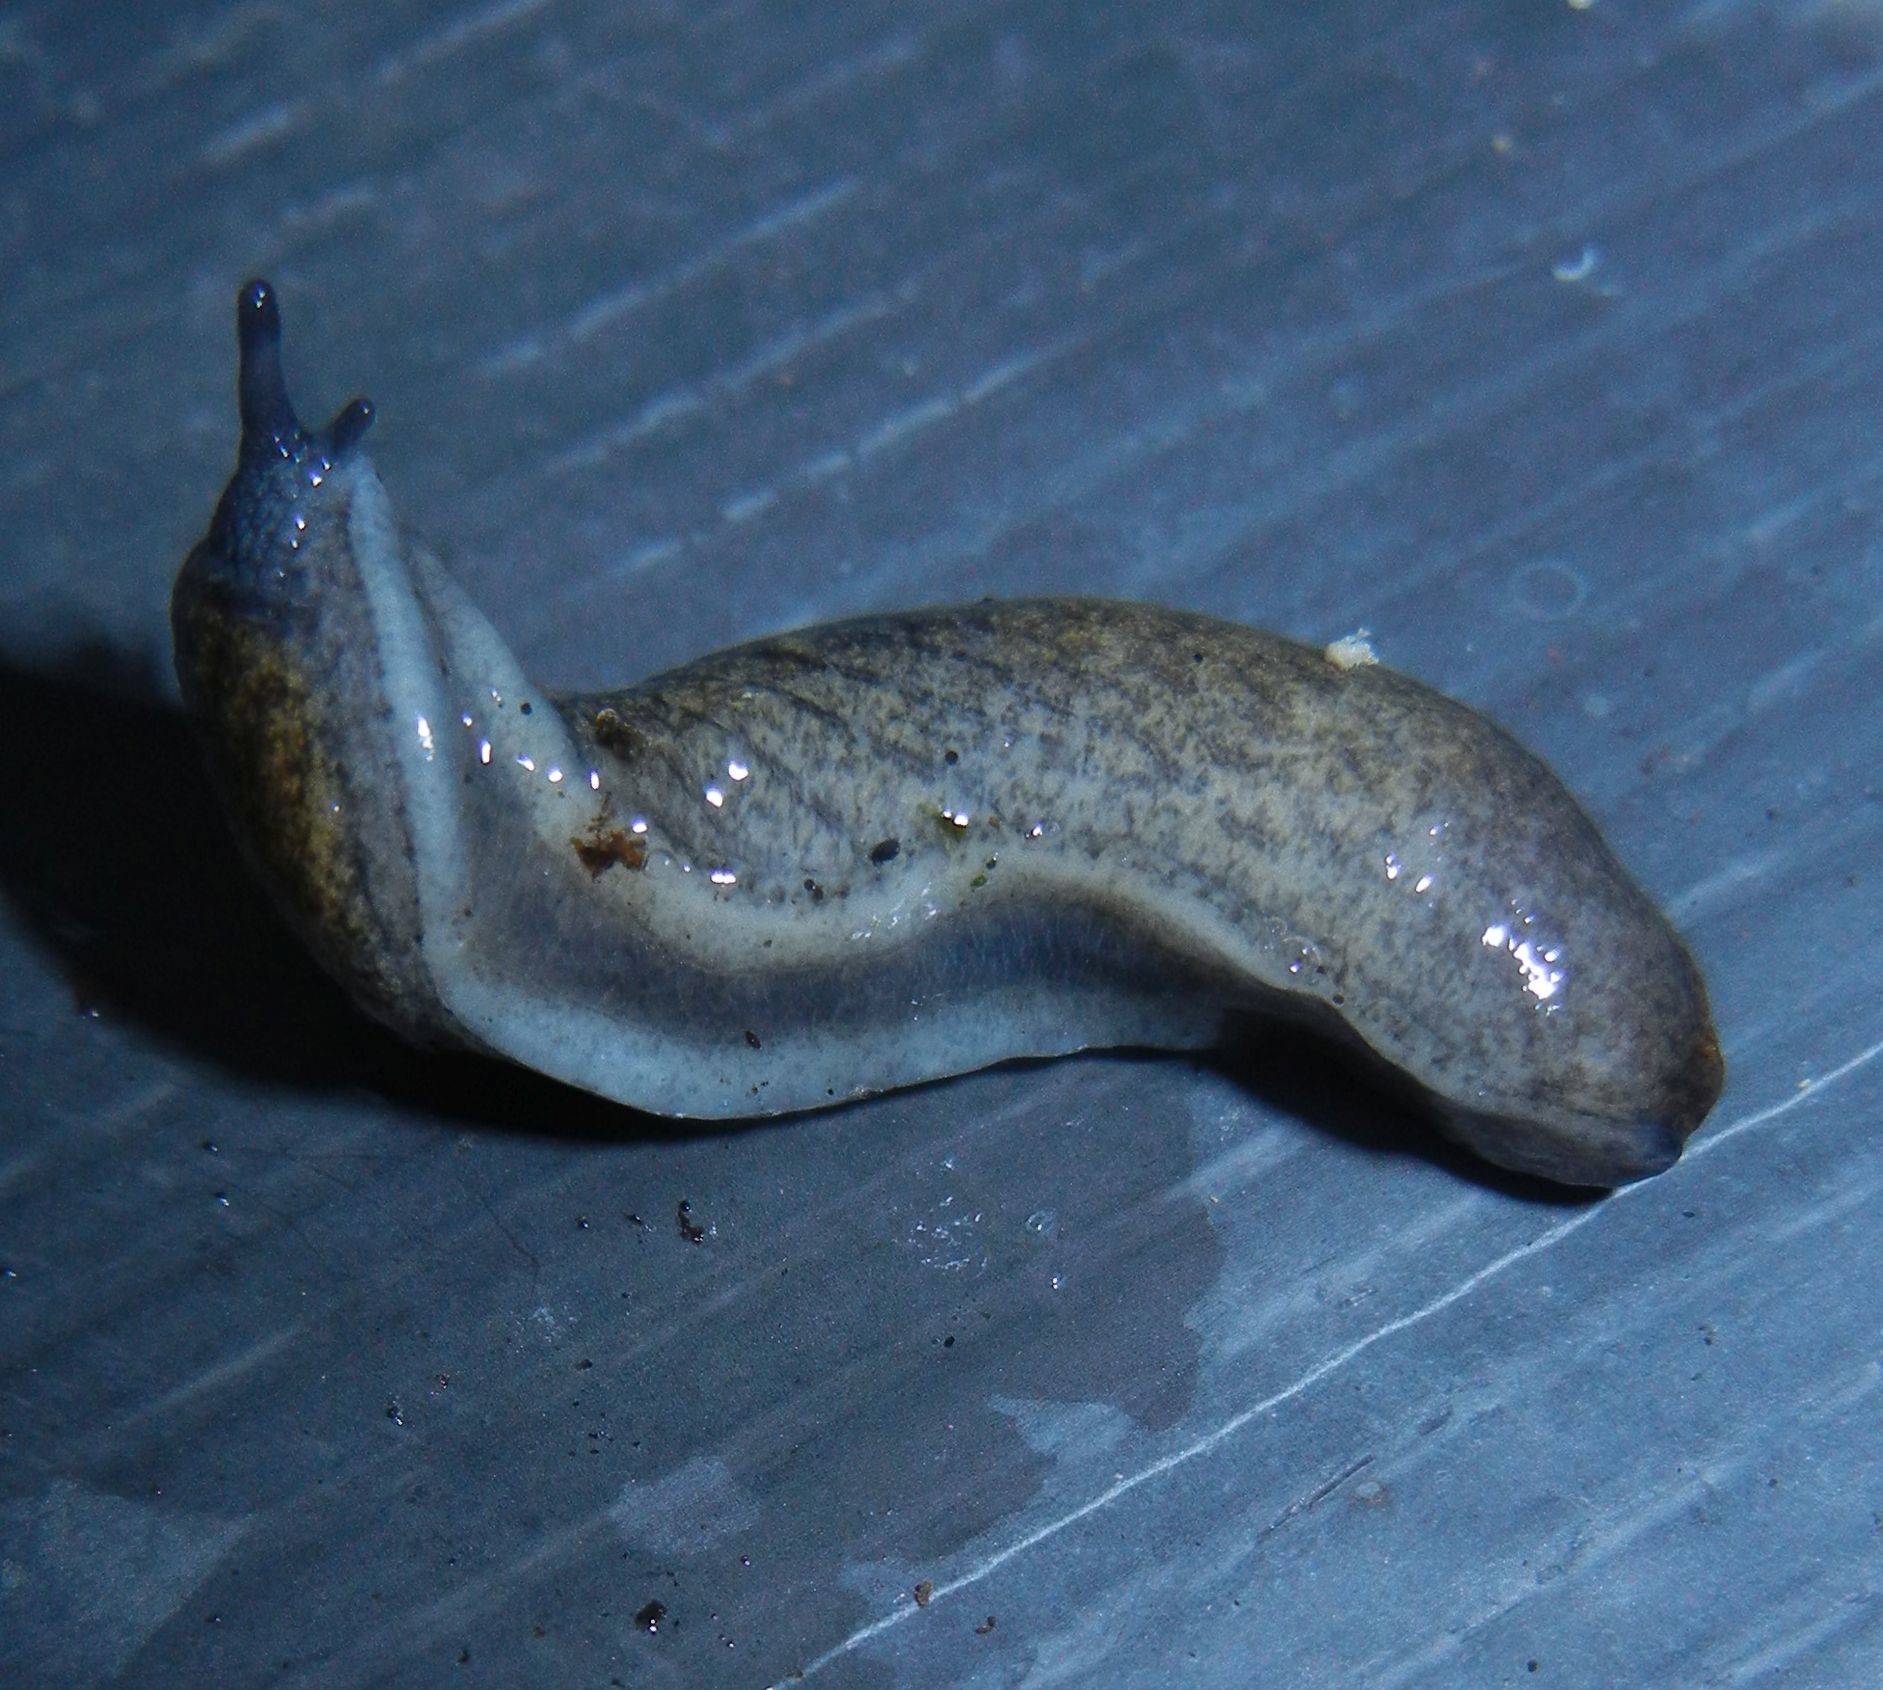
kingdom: Animalia
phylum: Mollusca
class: Gastropoda
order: Stylommatophora
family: Milacidae
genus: Tandonia
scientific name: Tandonia budapestensis
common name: Budapest slug
